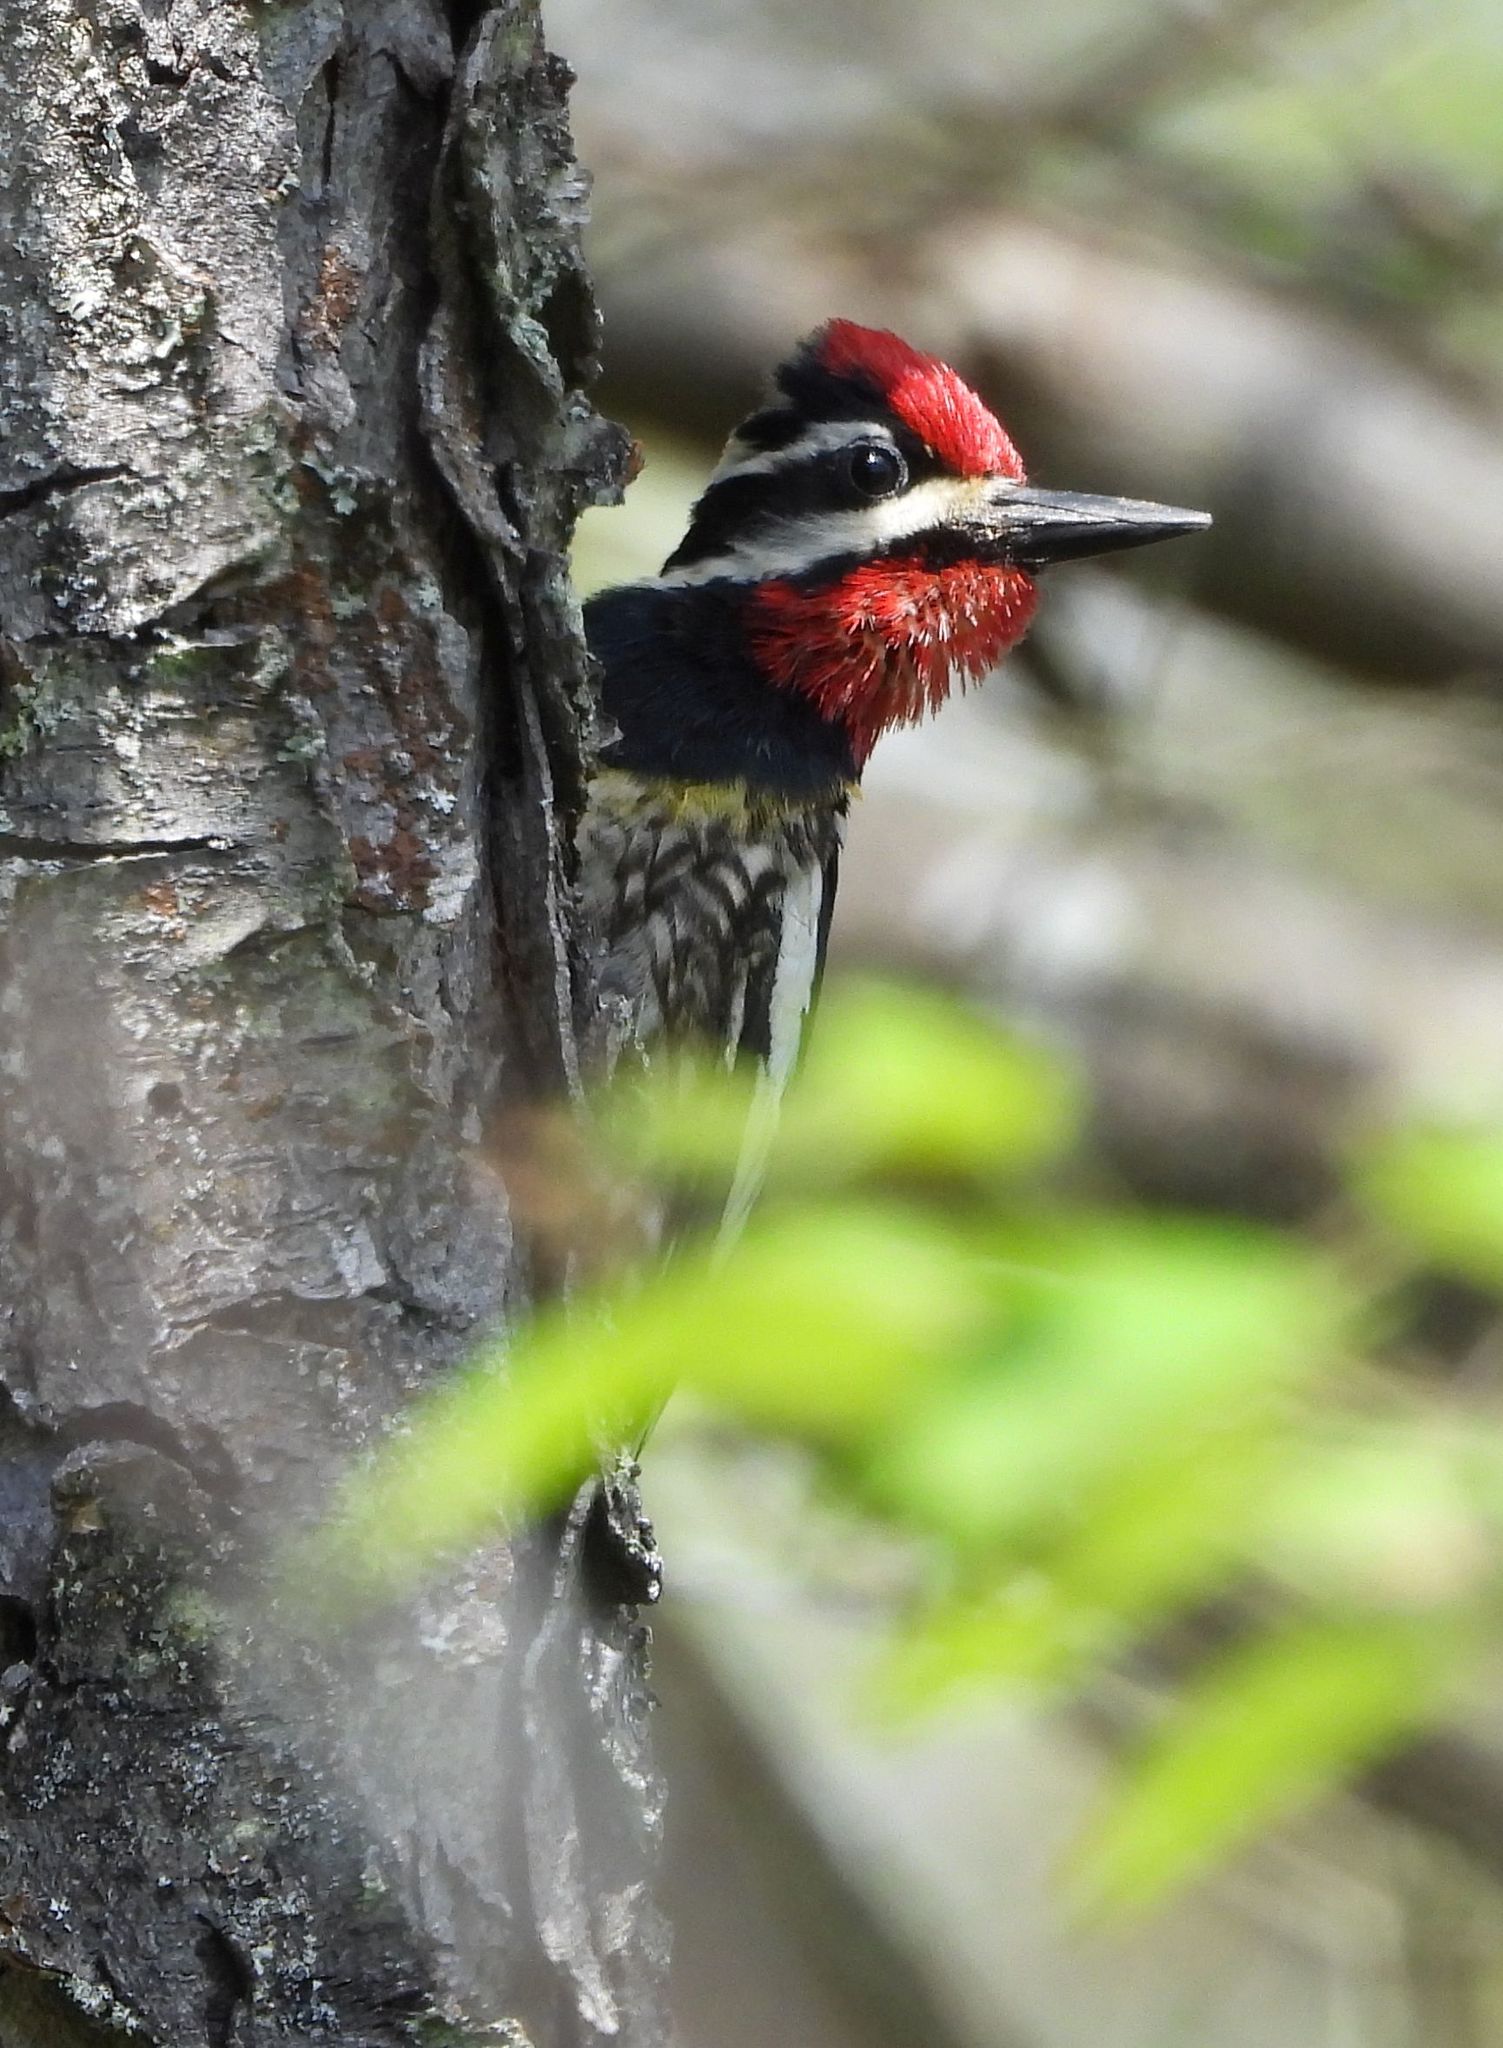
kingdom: Animalia
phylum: Chordata
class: Aves
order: Piciformes
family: Picidae
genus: Sphyrapicus
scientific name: Sphyrapicus varius
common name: Yellow-bellied sapsucker
